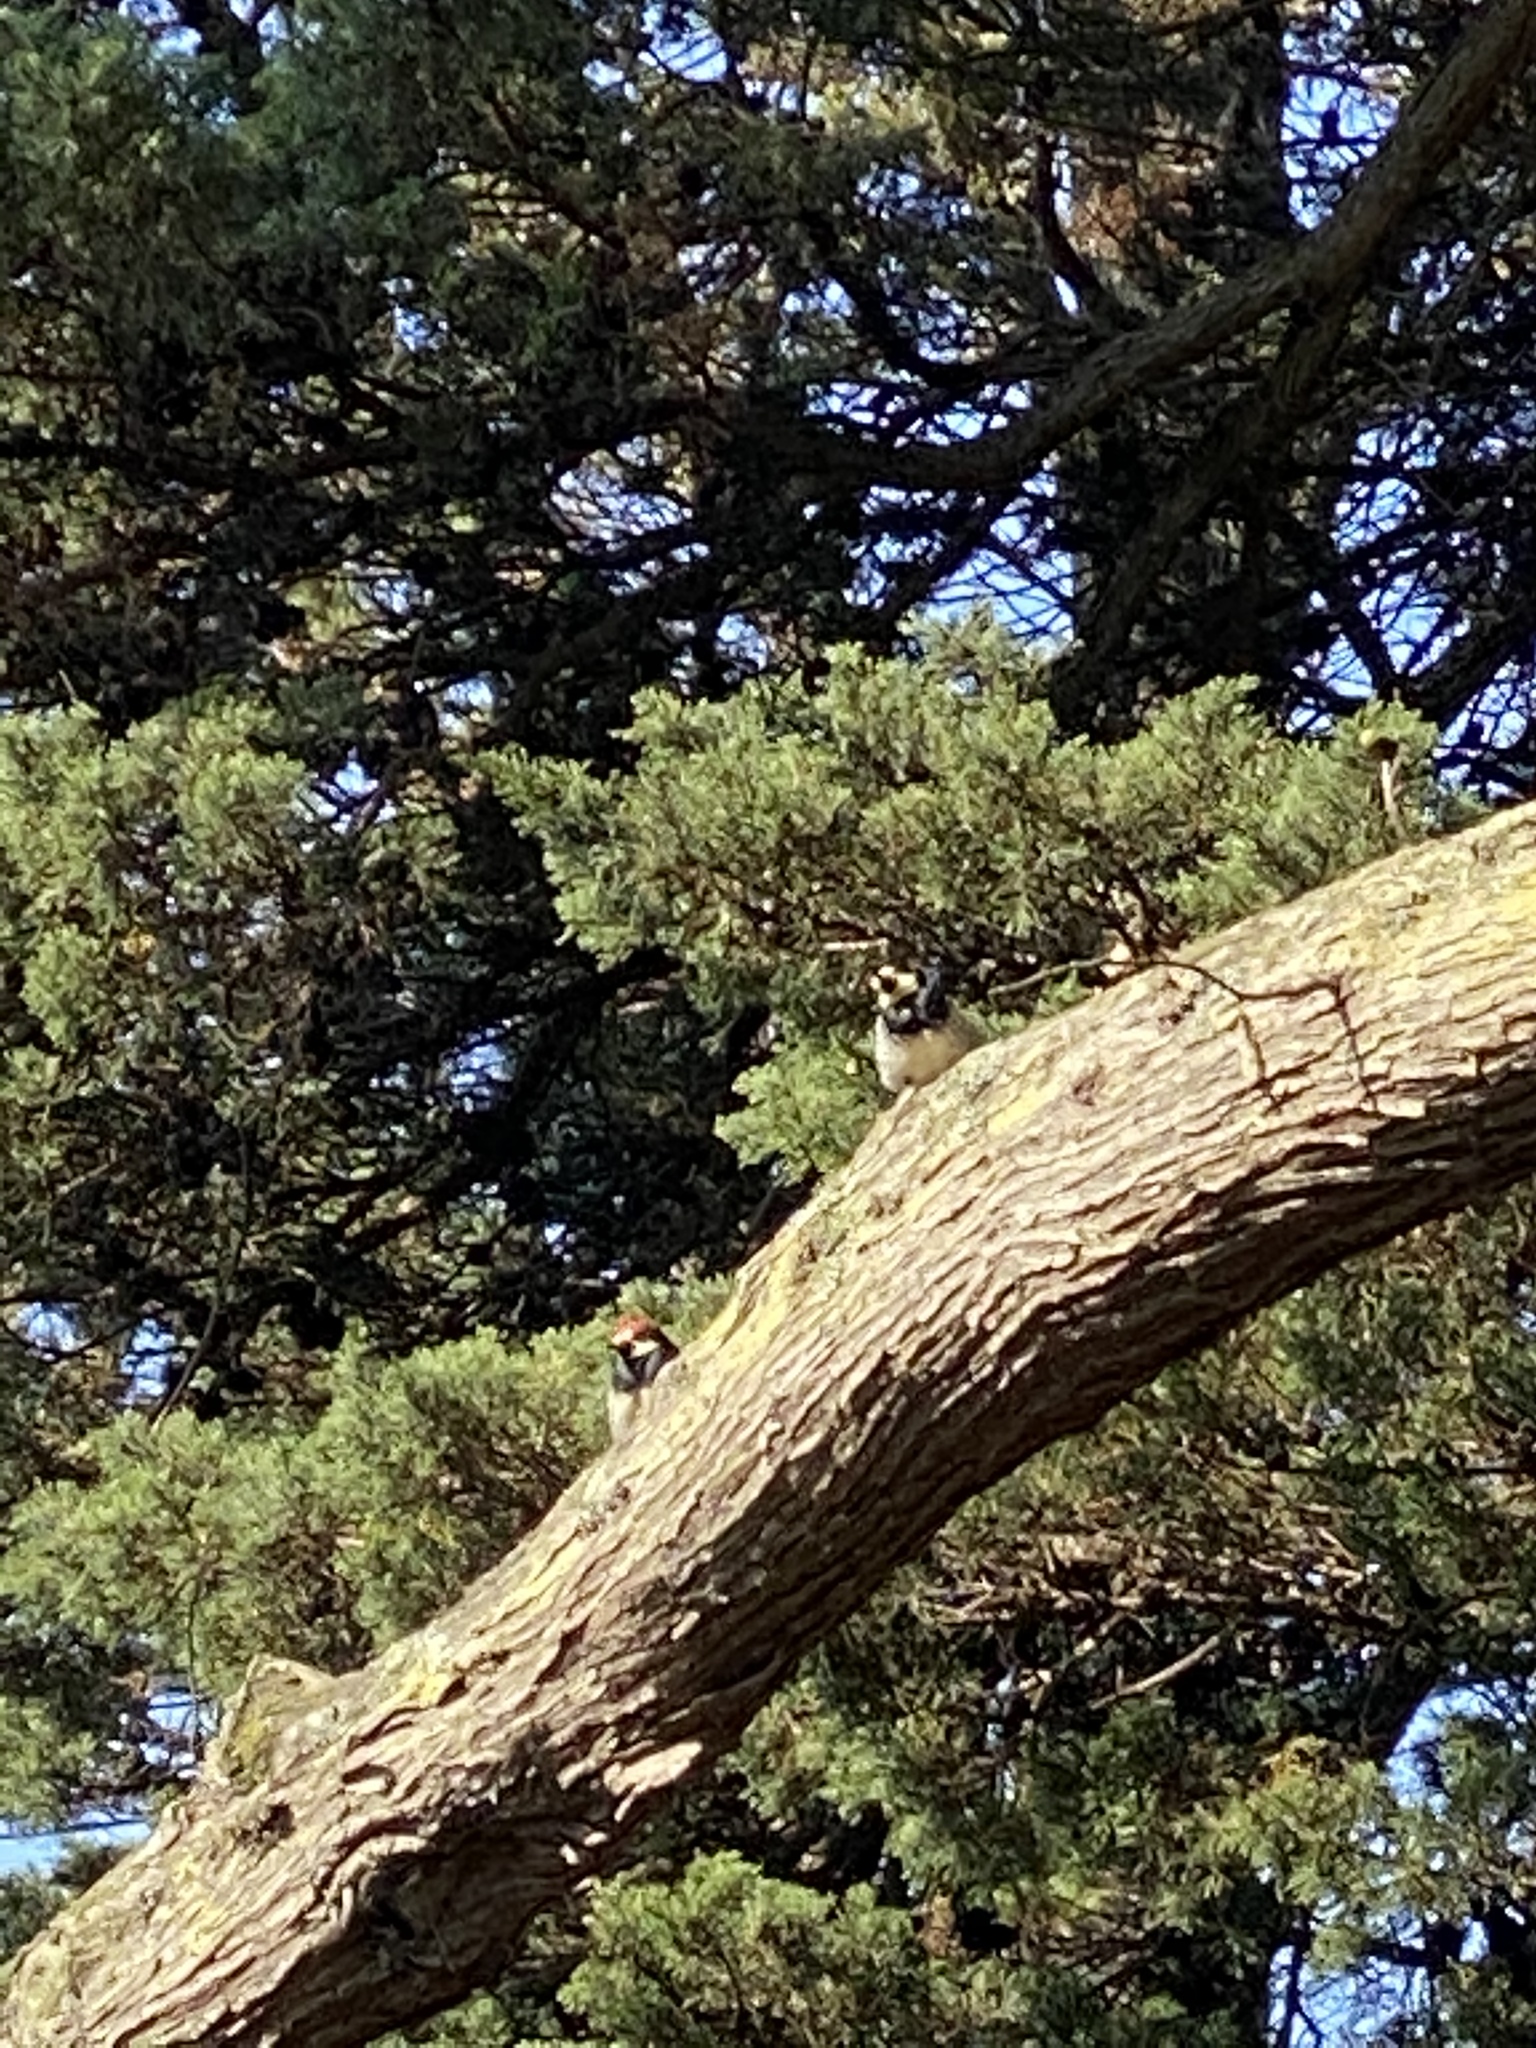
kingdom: Animalia
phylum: Chordata
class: Aves
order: Piciformes
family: Picidae
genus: Melanerpes
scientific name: Melanerpes formicivorus
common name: Acorn woodpecker
